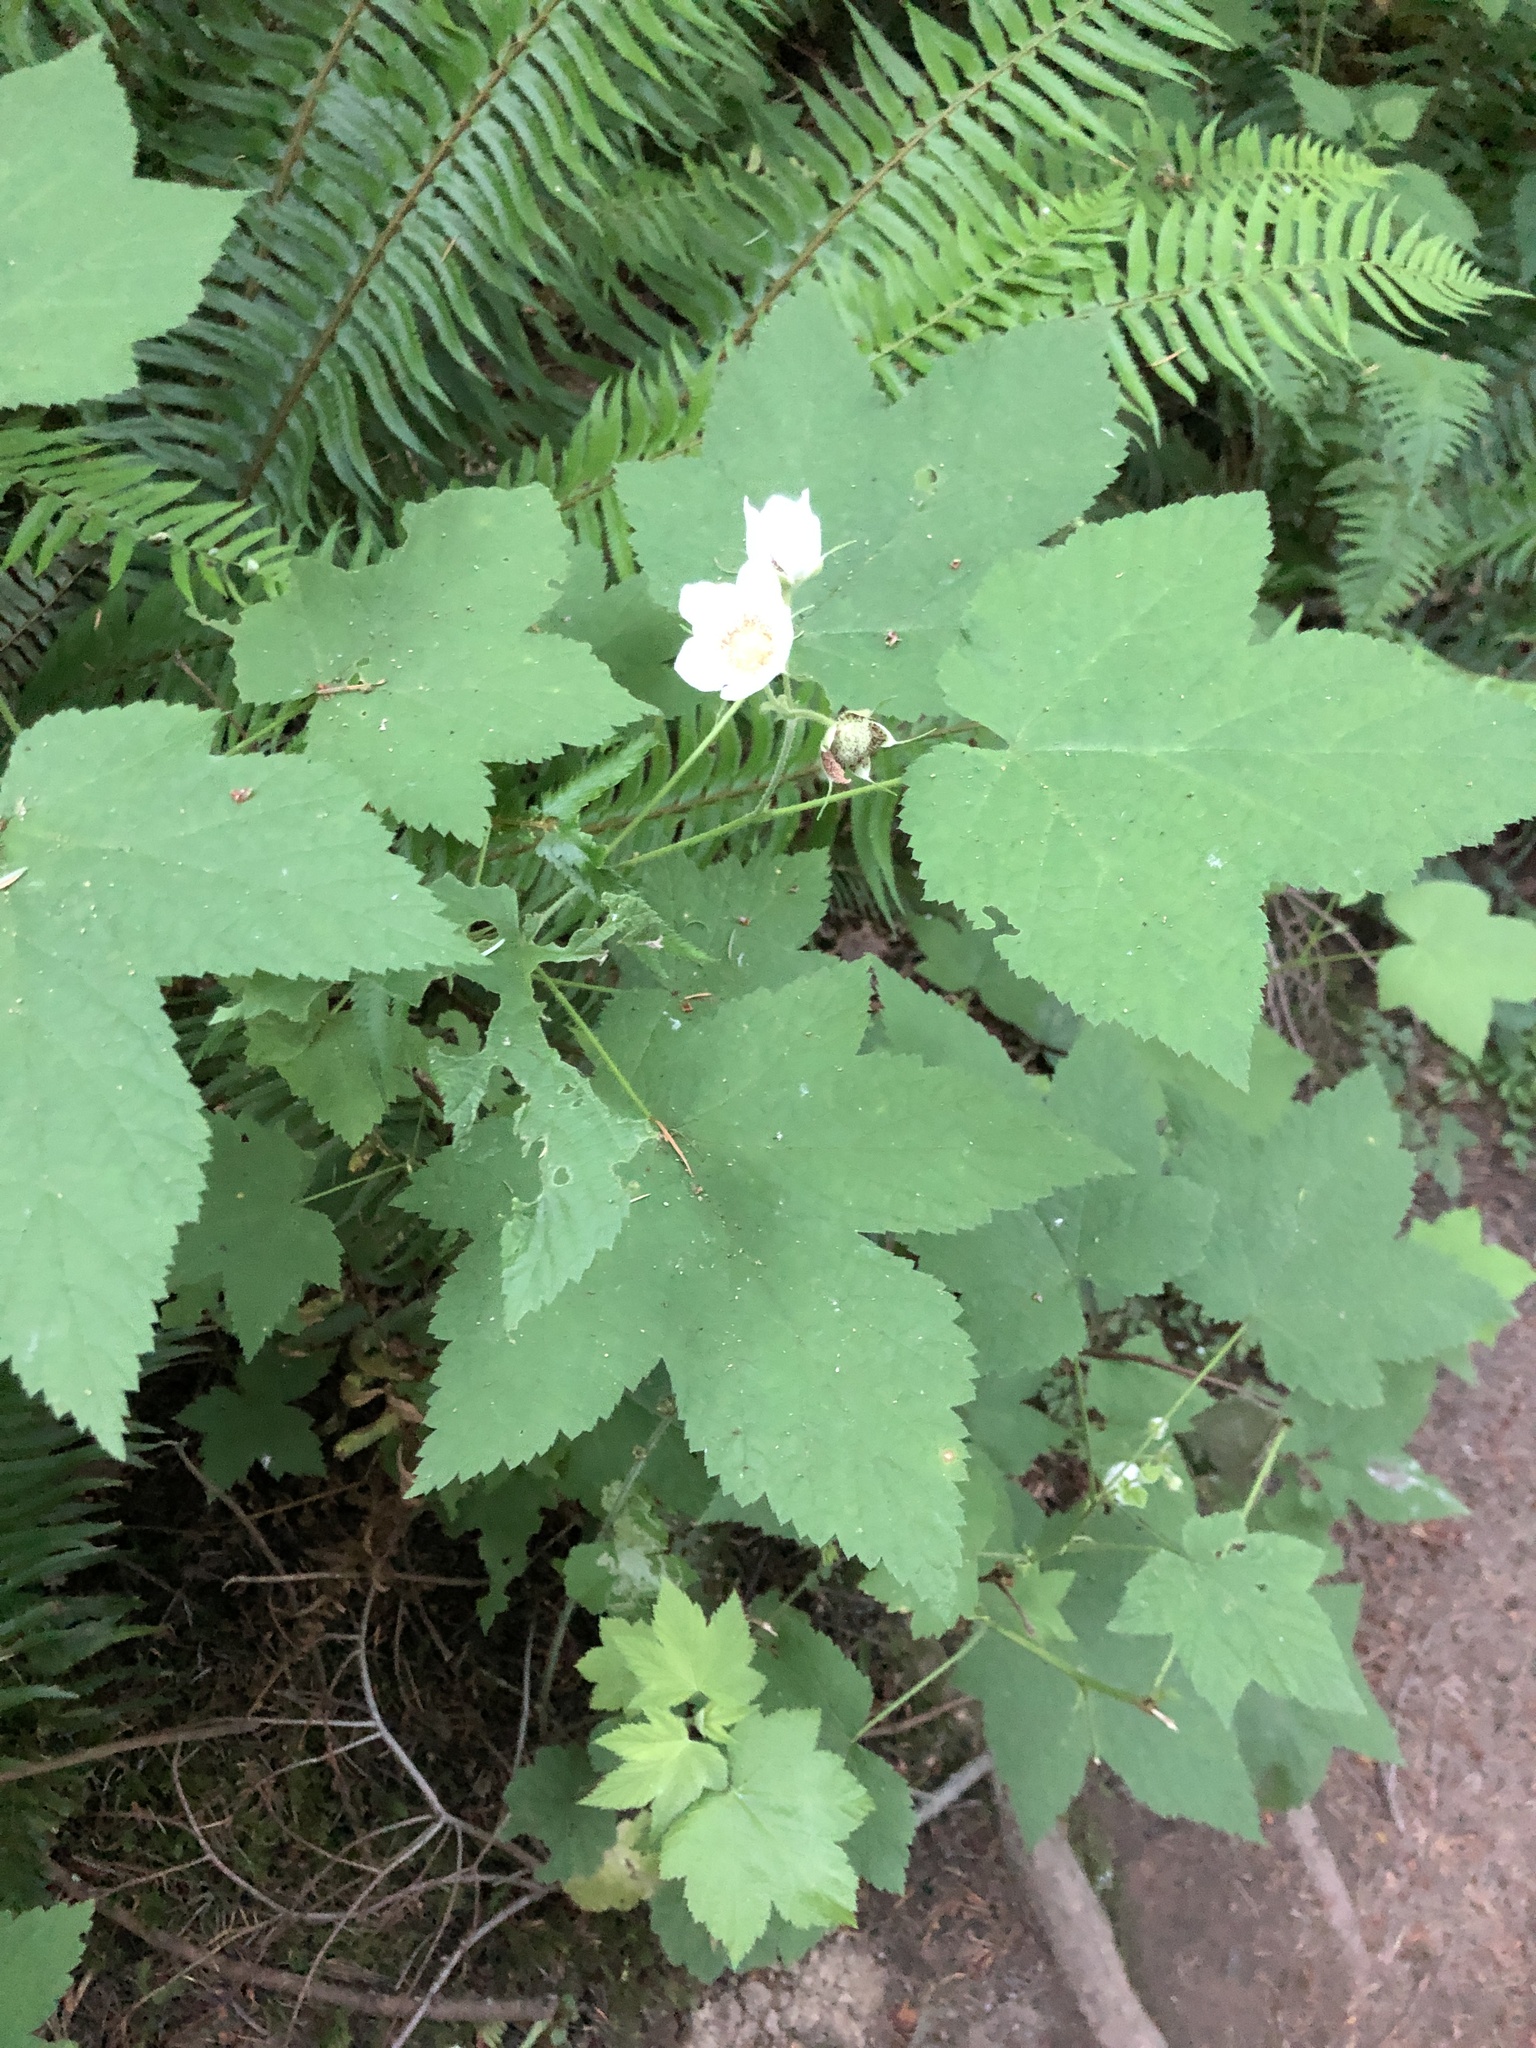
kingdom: Plantae
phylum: Tracheophyta
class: Magnoliopsida
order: Rosales
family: Rosaceae
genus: Rubus
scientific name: Rubus parviflorus
